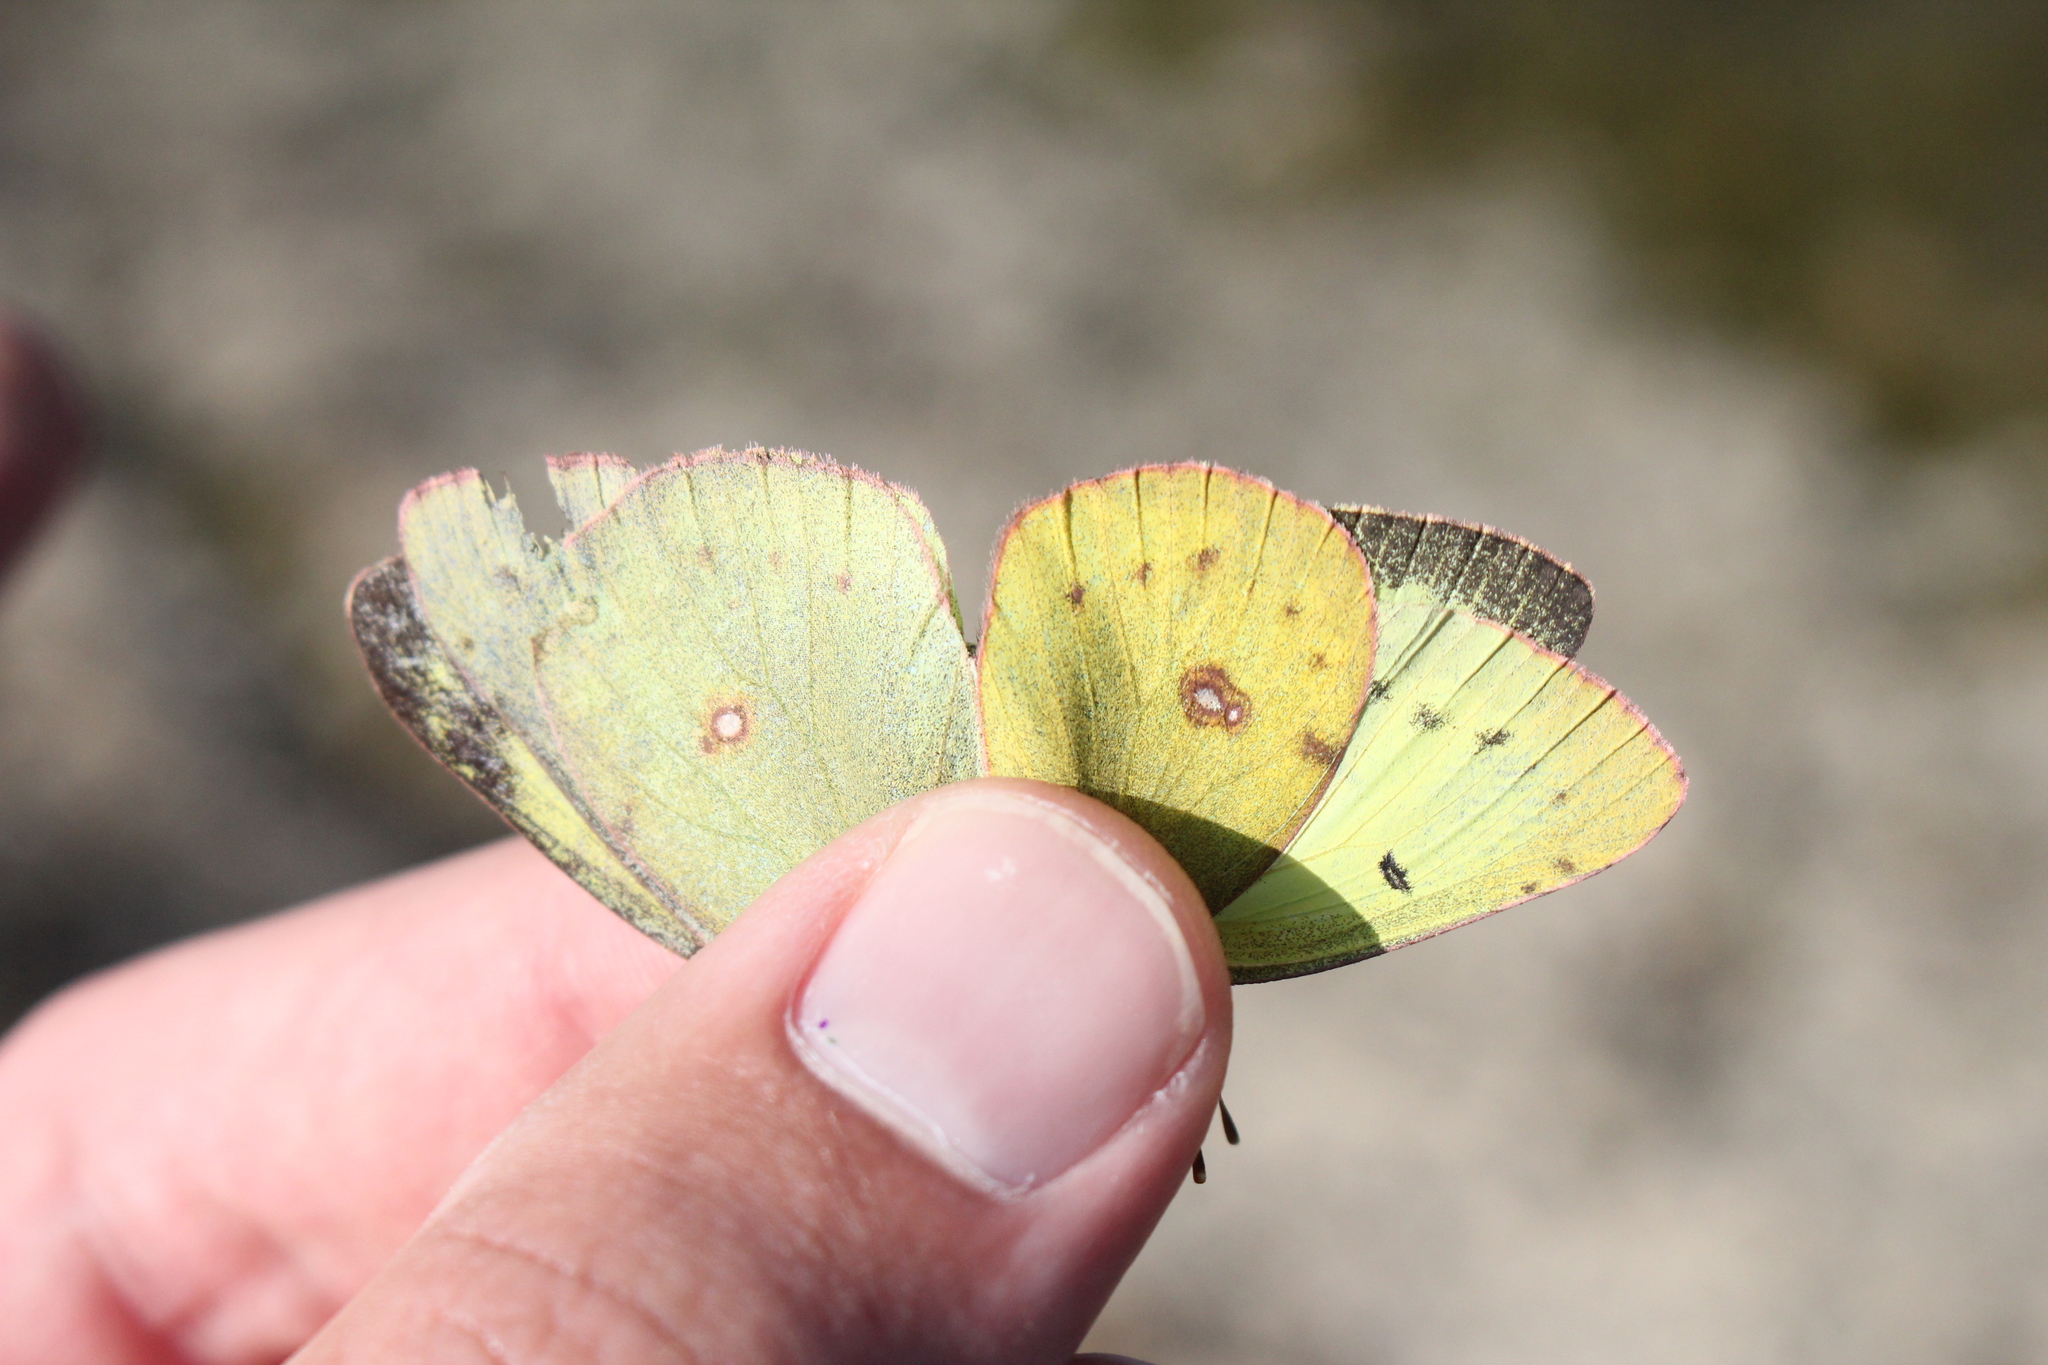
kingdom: Animalia
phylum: Arthropoda
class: Insecta
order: Lepidoptera
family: Pieridae
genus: Colias
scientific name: Colias philodice
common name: Clouded sulphur
